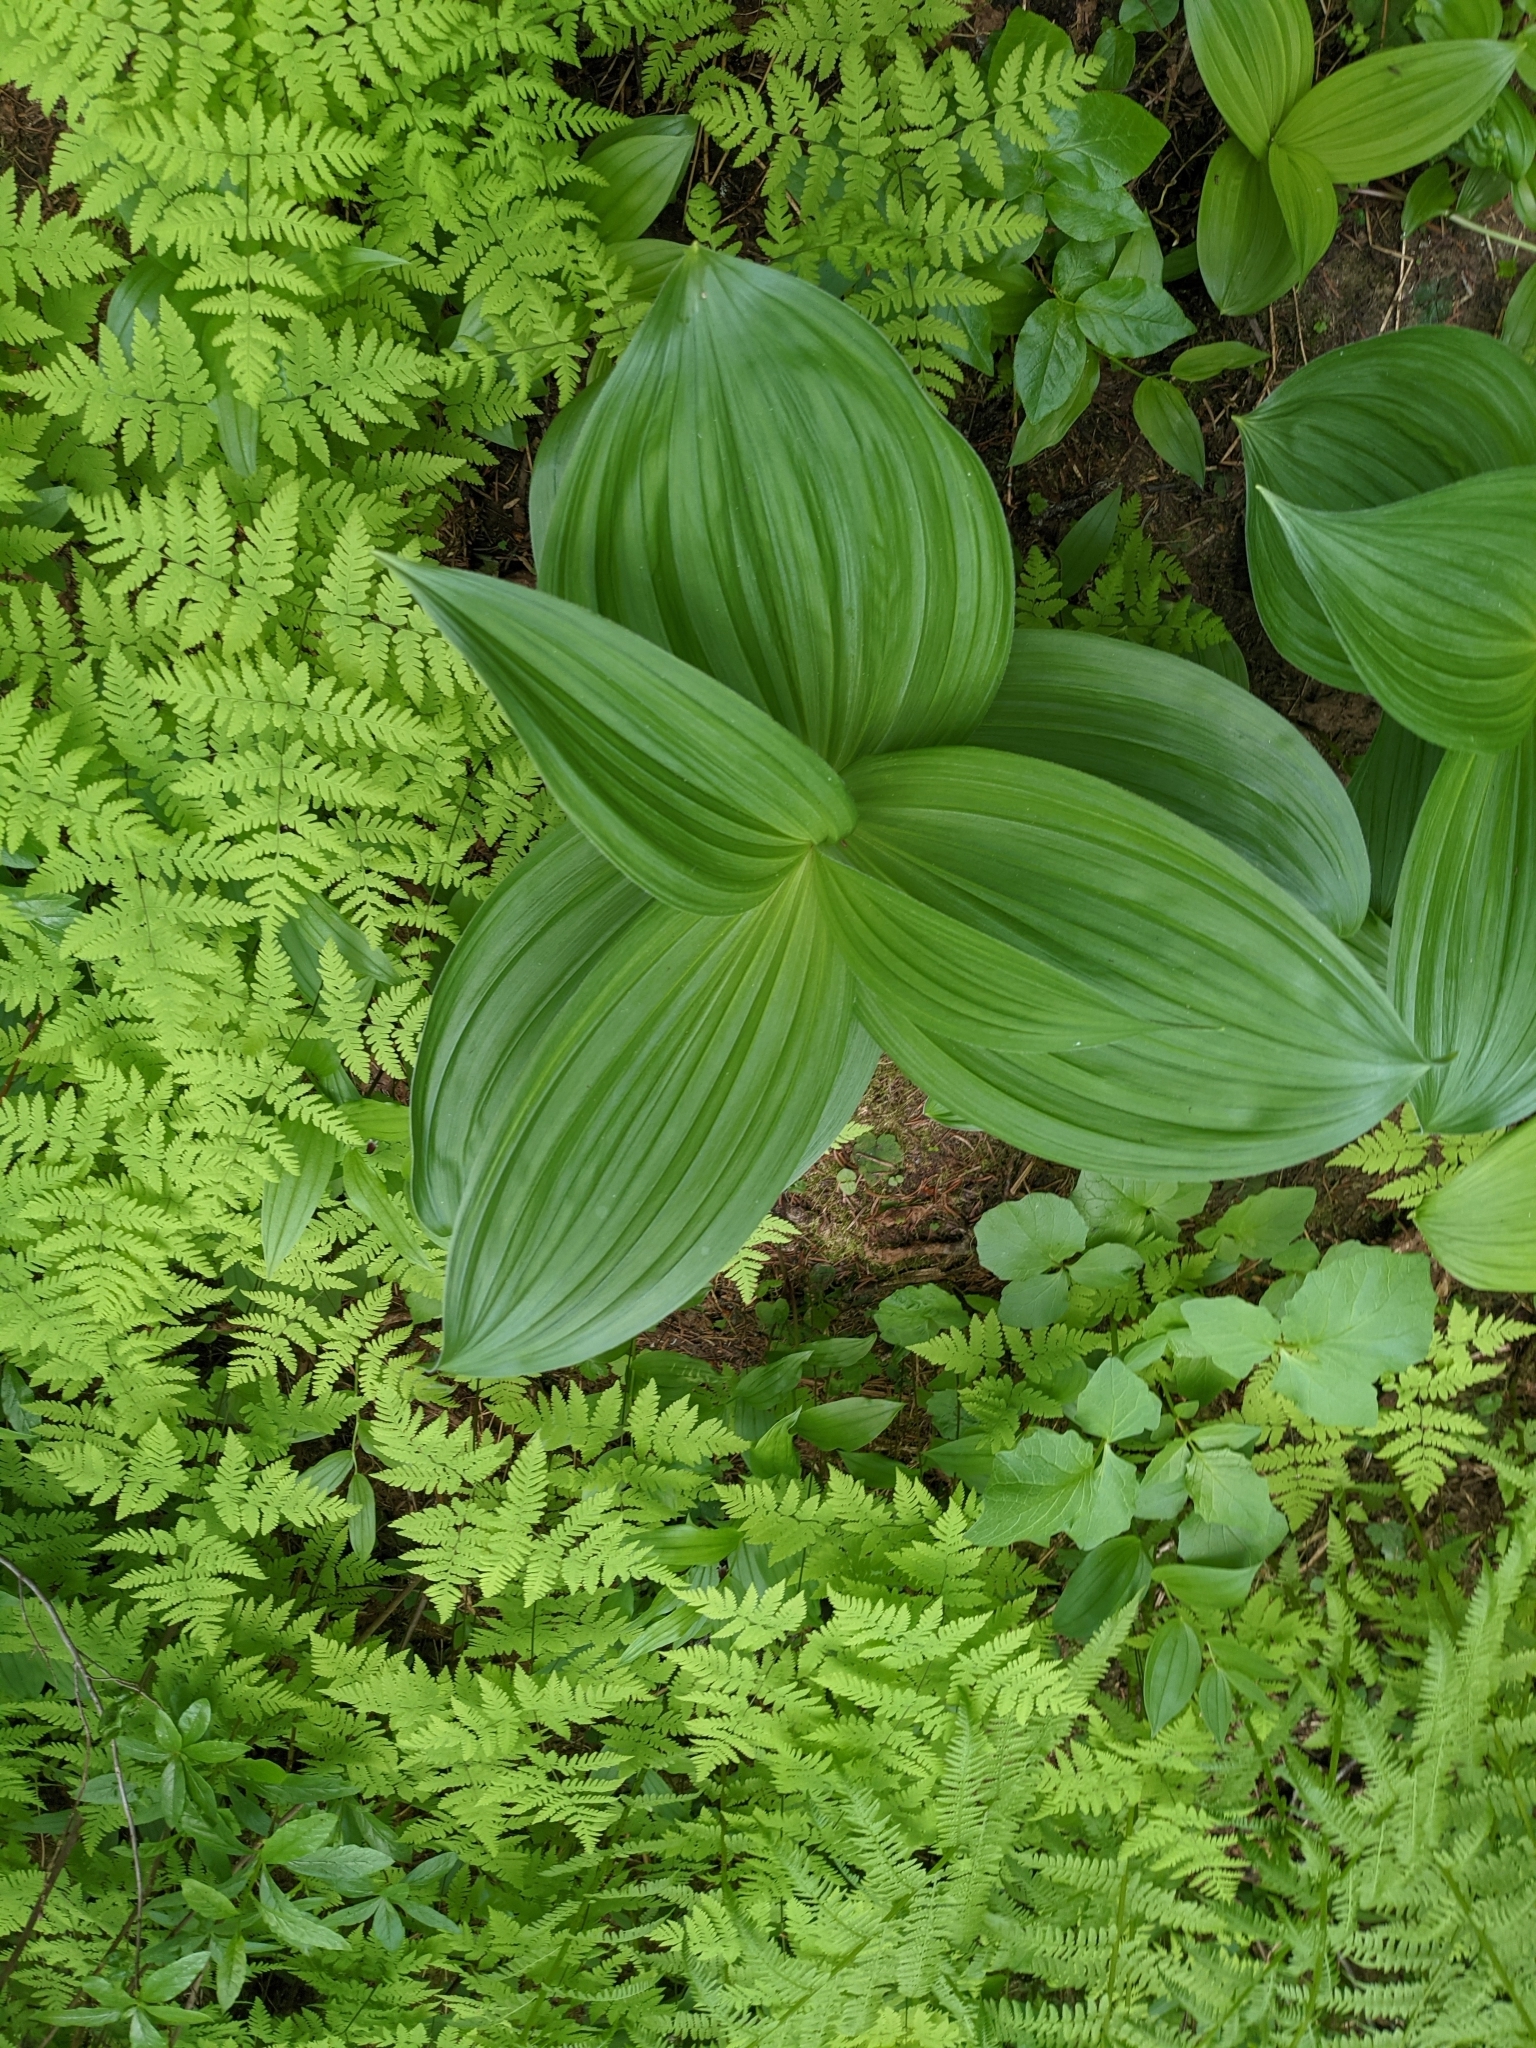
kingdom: Plantae
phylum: Tracheophyta
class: Liliopsida
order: Liliales
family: Melanthiaceae
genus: Veratrum
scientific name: Veratrum viride
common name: American false hellebore
